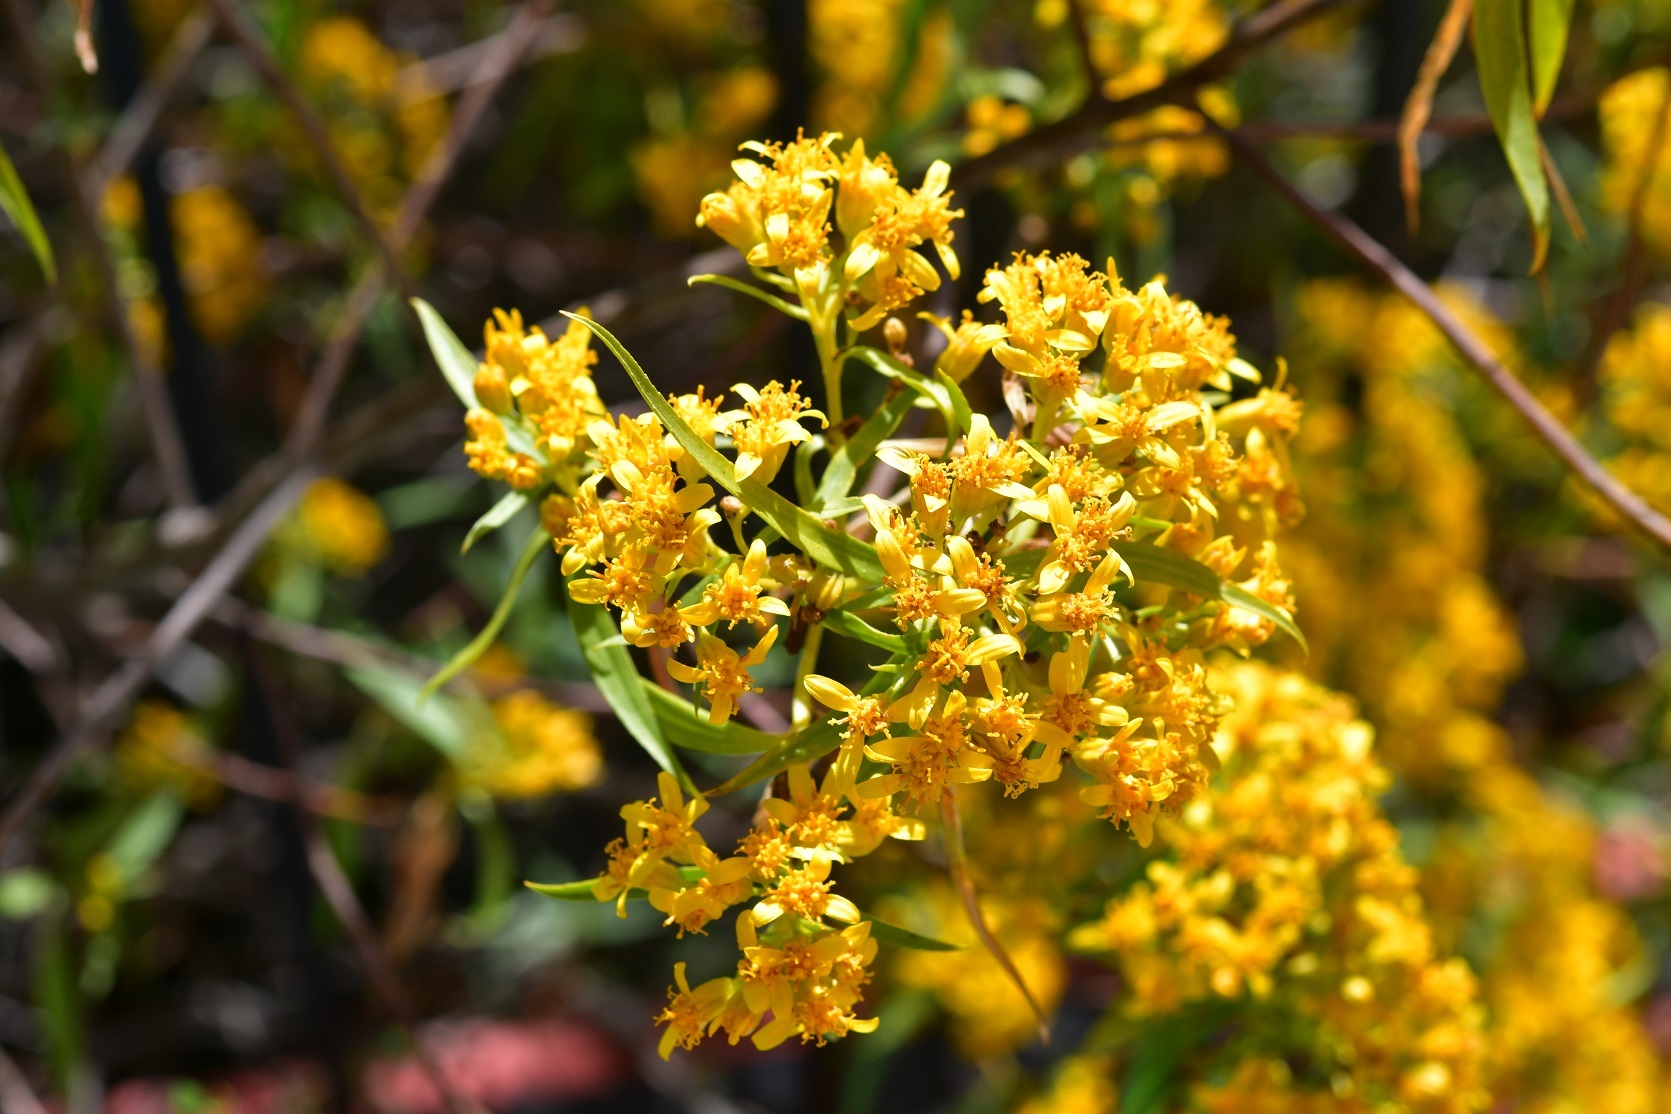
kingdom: Plantae
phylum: Tracheophyta
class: Magnoliopsida
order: Asterales
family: Asteraceae
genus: Barkleyanthus
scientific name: Barkleyanthus salicifolius
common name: Willow ragwort
